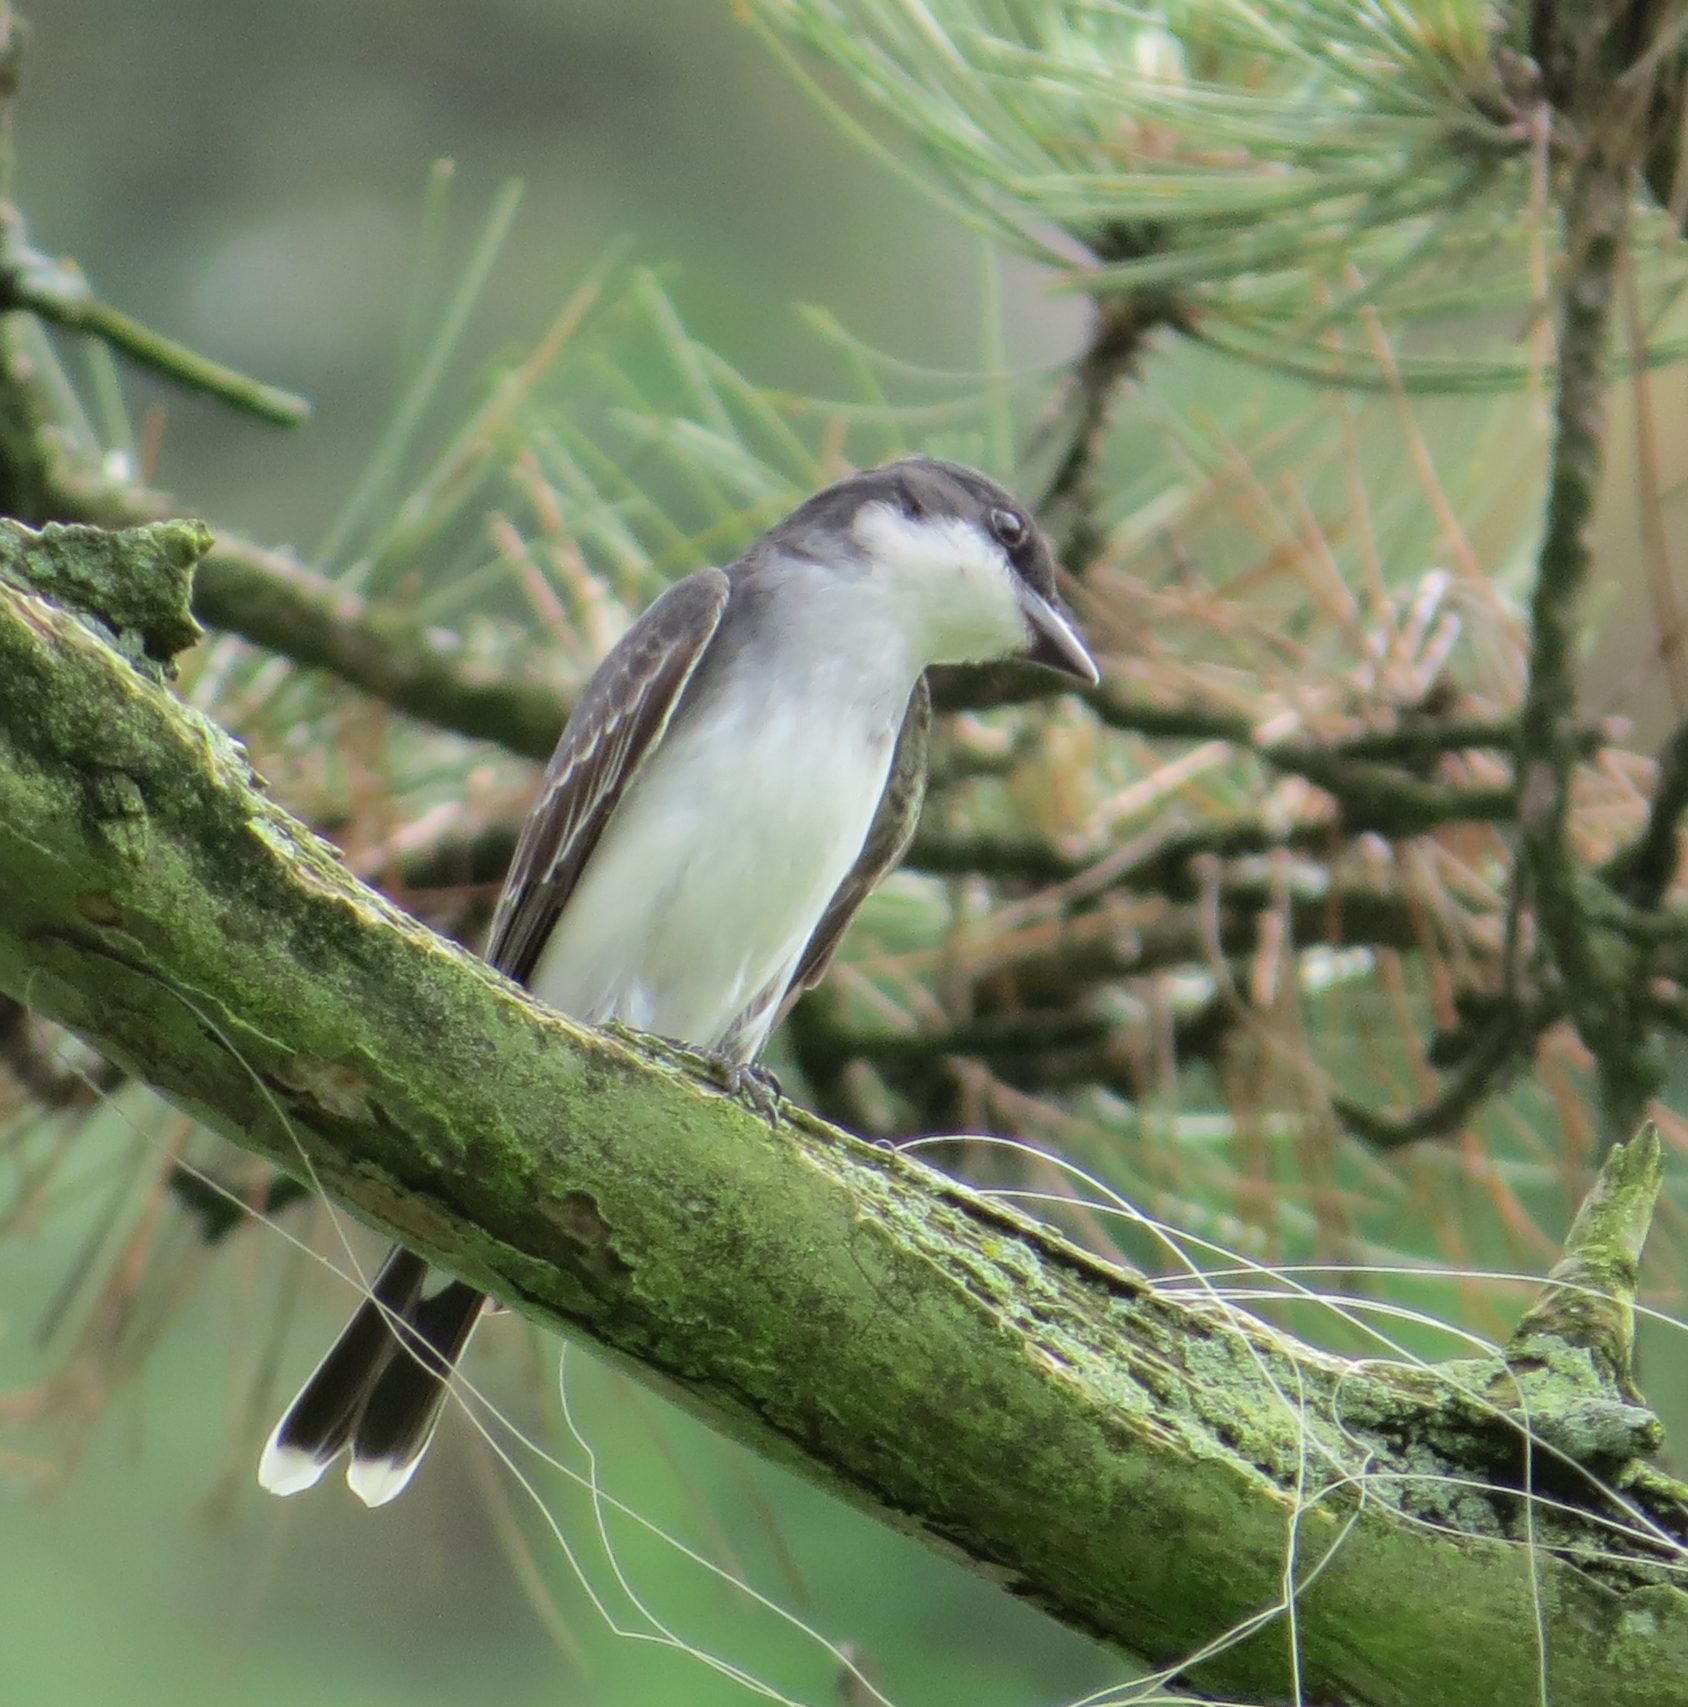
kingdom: Animalia
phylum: Chordata
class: Aves
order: Passeriformes
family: Tyrannidae
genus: Tyrannus
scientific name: Tyrannus tyrannus
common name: Eastern kingbird
